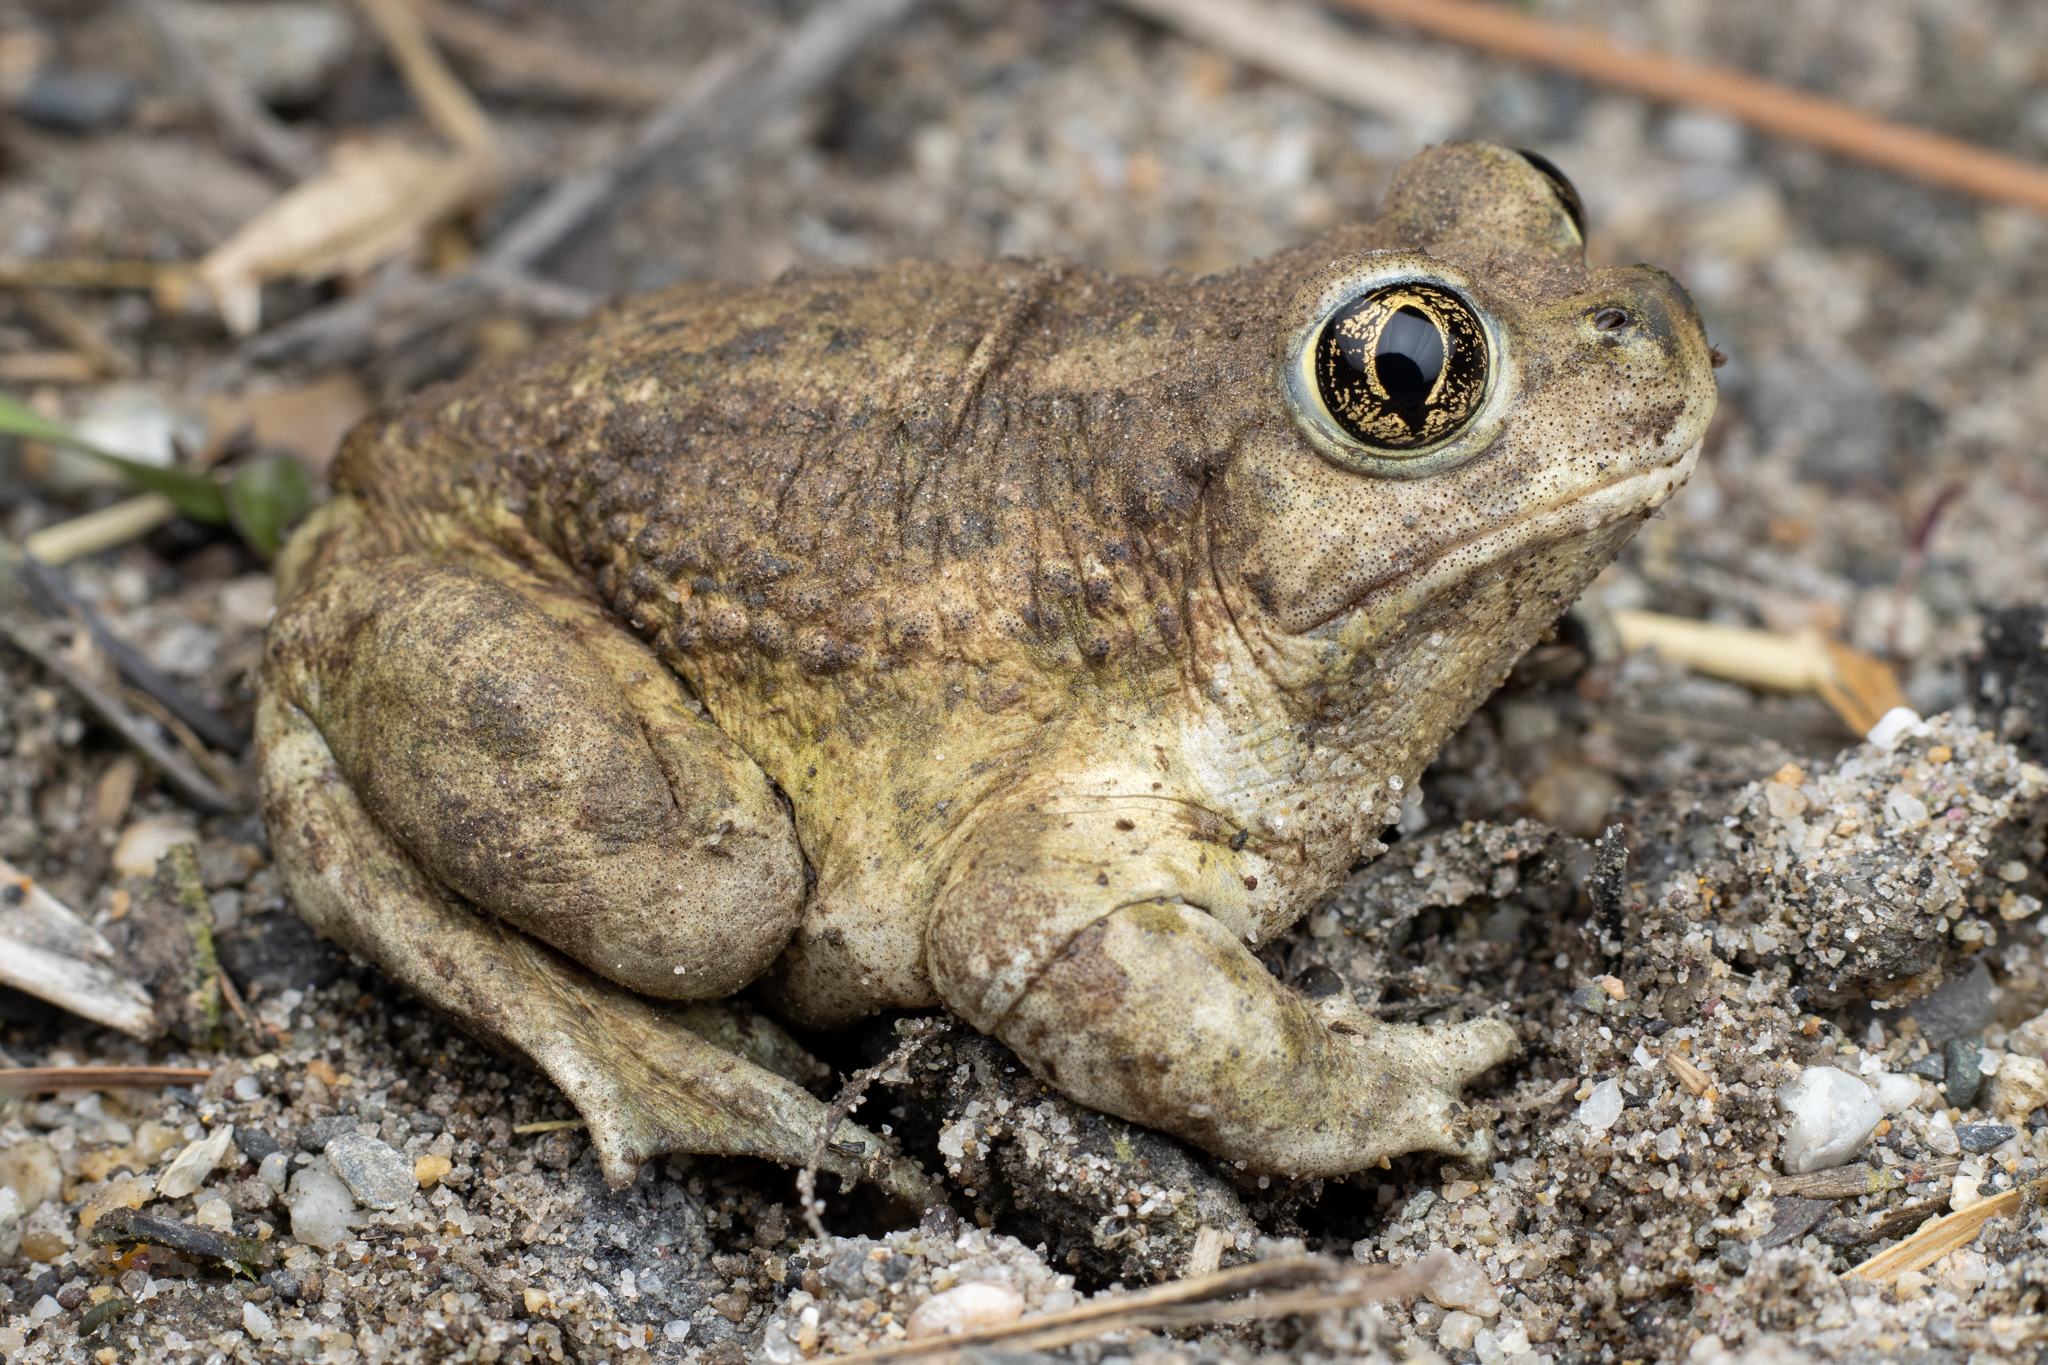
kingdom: Animalia
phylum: Chordata
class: Amphibia
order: Anura
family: Scaphiopodidae
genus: Spea
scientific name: Spea intermontana
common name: Great basin spadefoot
